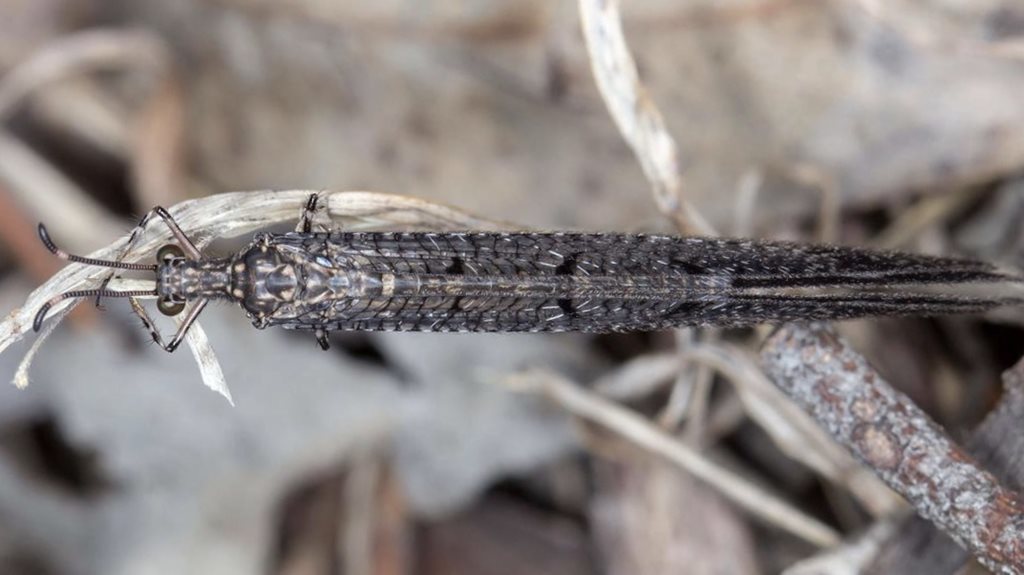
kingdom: Animalia
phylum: Arthropoda
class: Insecta
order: Neuroptera
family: Myrmeleontidae
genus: Glenoleon
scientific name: Glenoleon pulchellus
